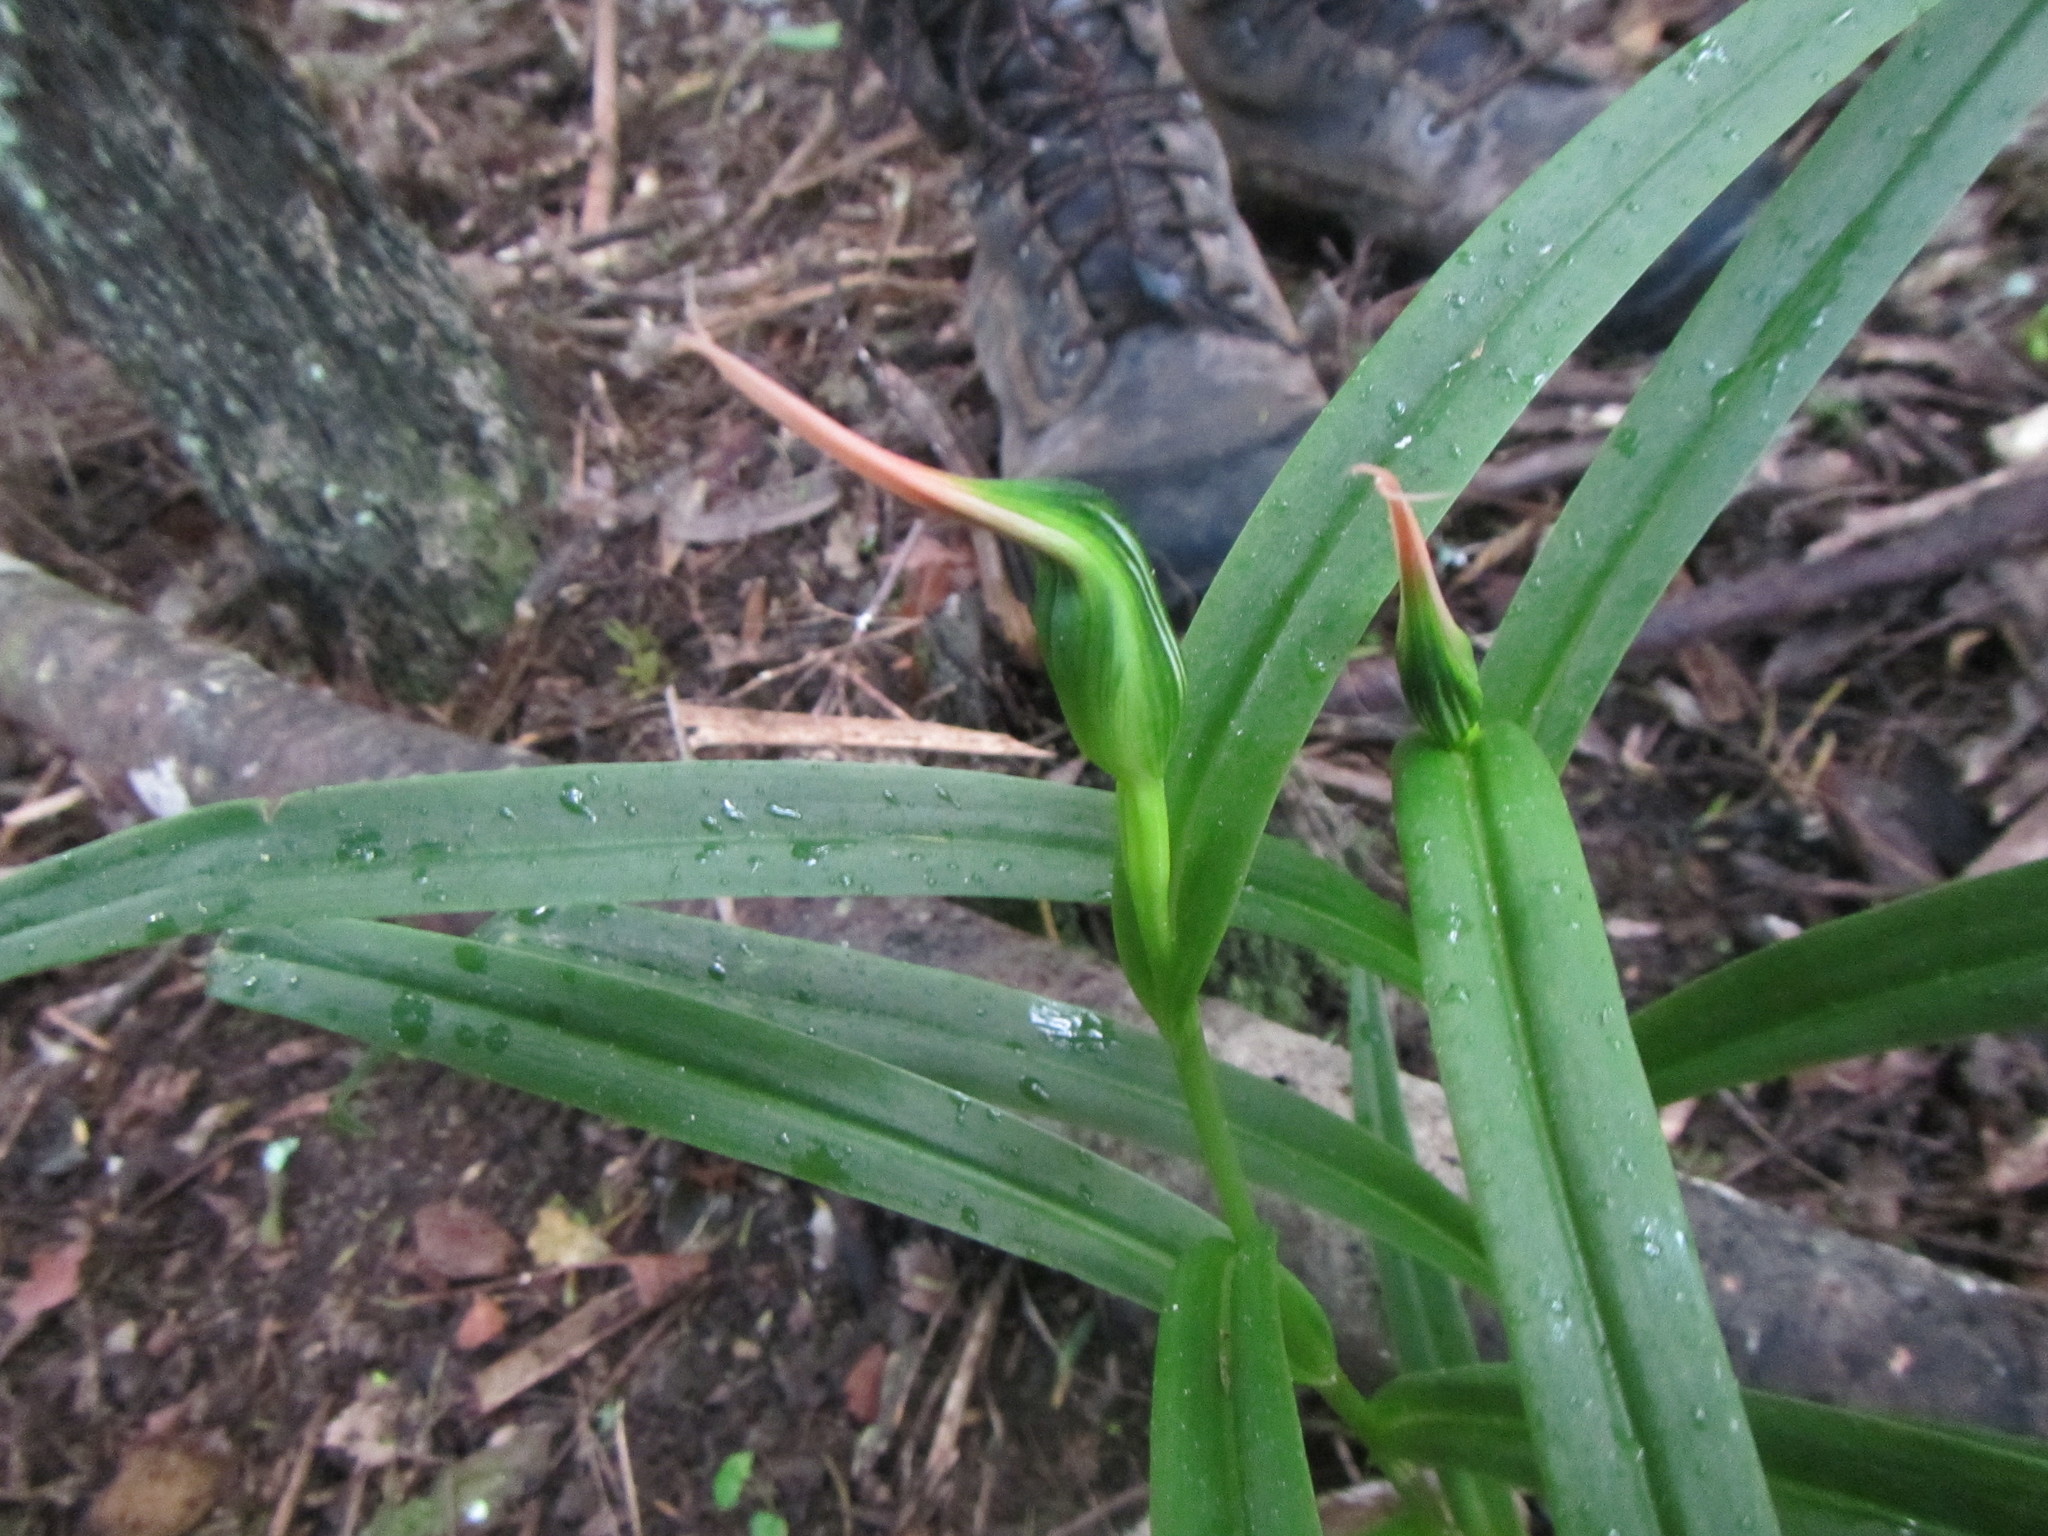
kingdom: Plantae
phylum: Tracheophyta
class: Liliopsida
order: Asparagales
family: Orchidaceae
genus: Pterostylis
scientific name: Pterostylis banksii
